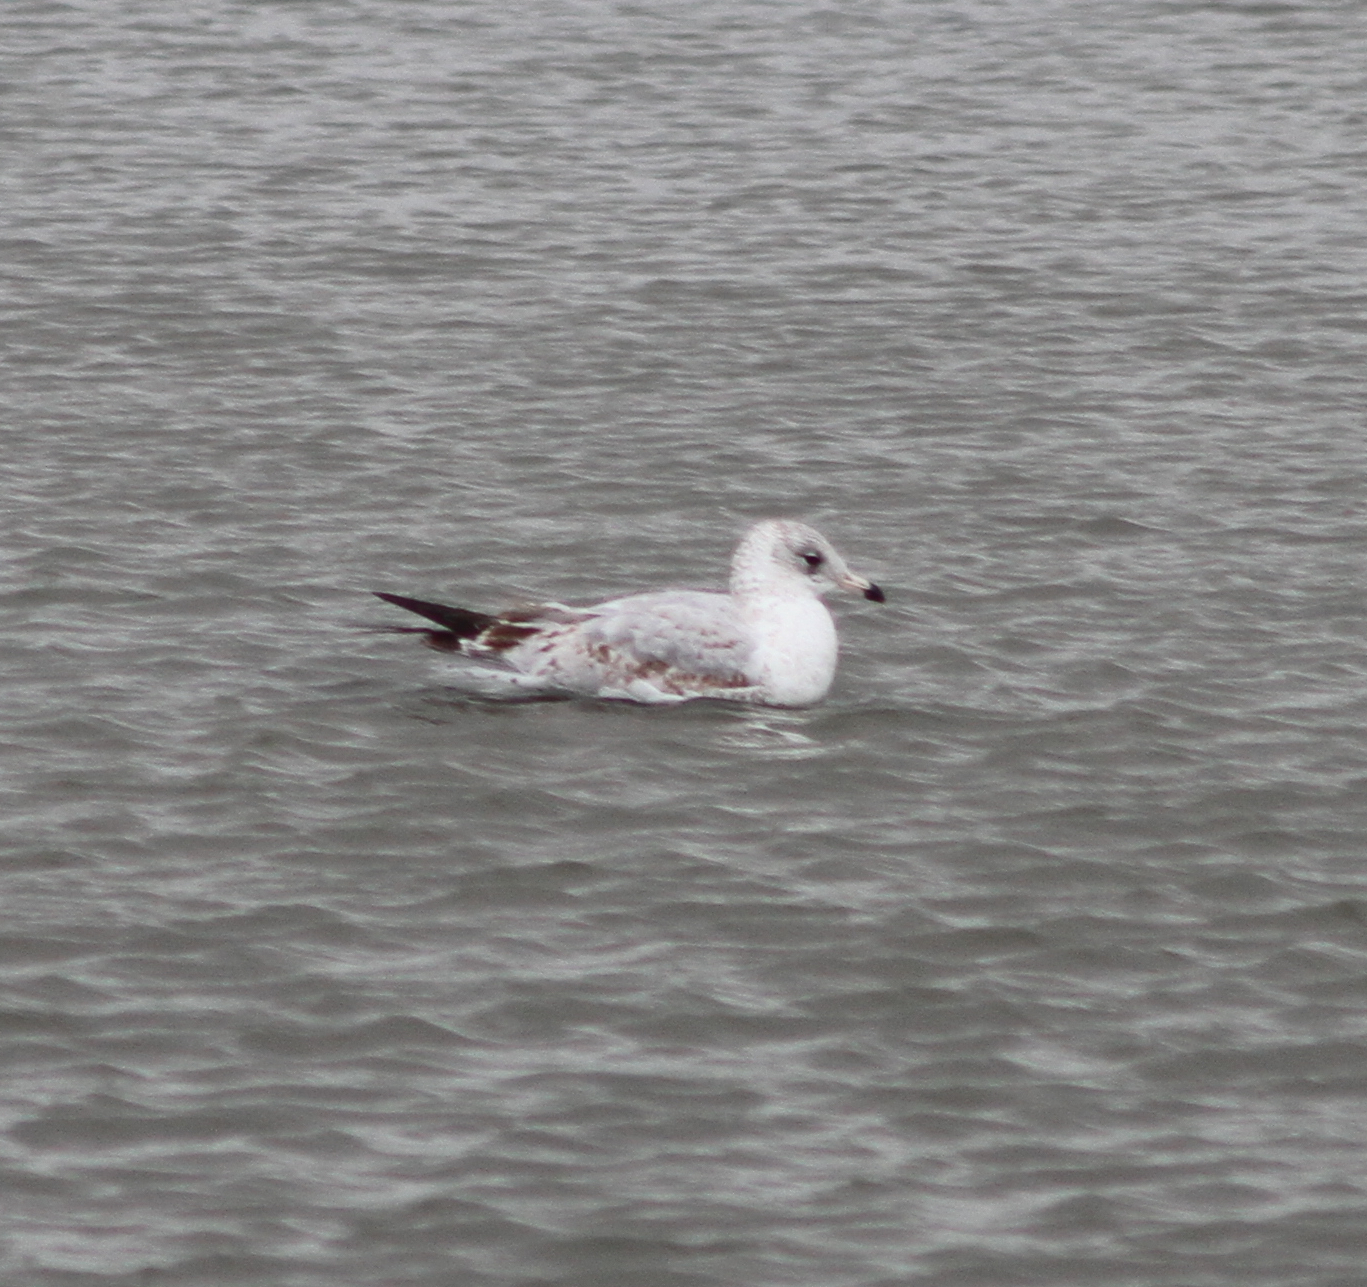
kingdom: Animalia
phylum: Chordata
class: Aves
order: Charadriiformes
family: Laridae
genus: Larus
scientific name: Larus delawarensis
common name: Ring-billed gull
